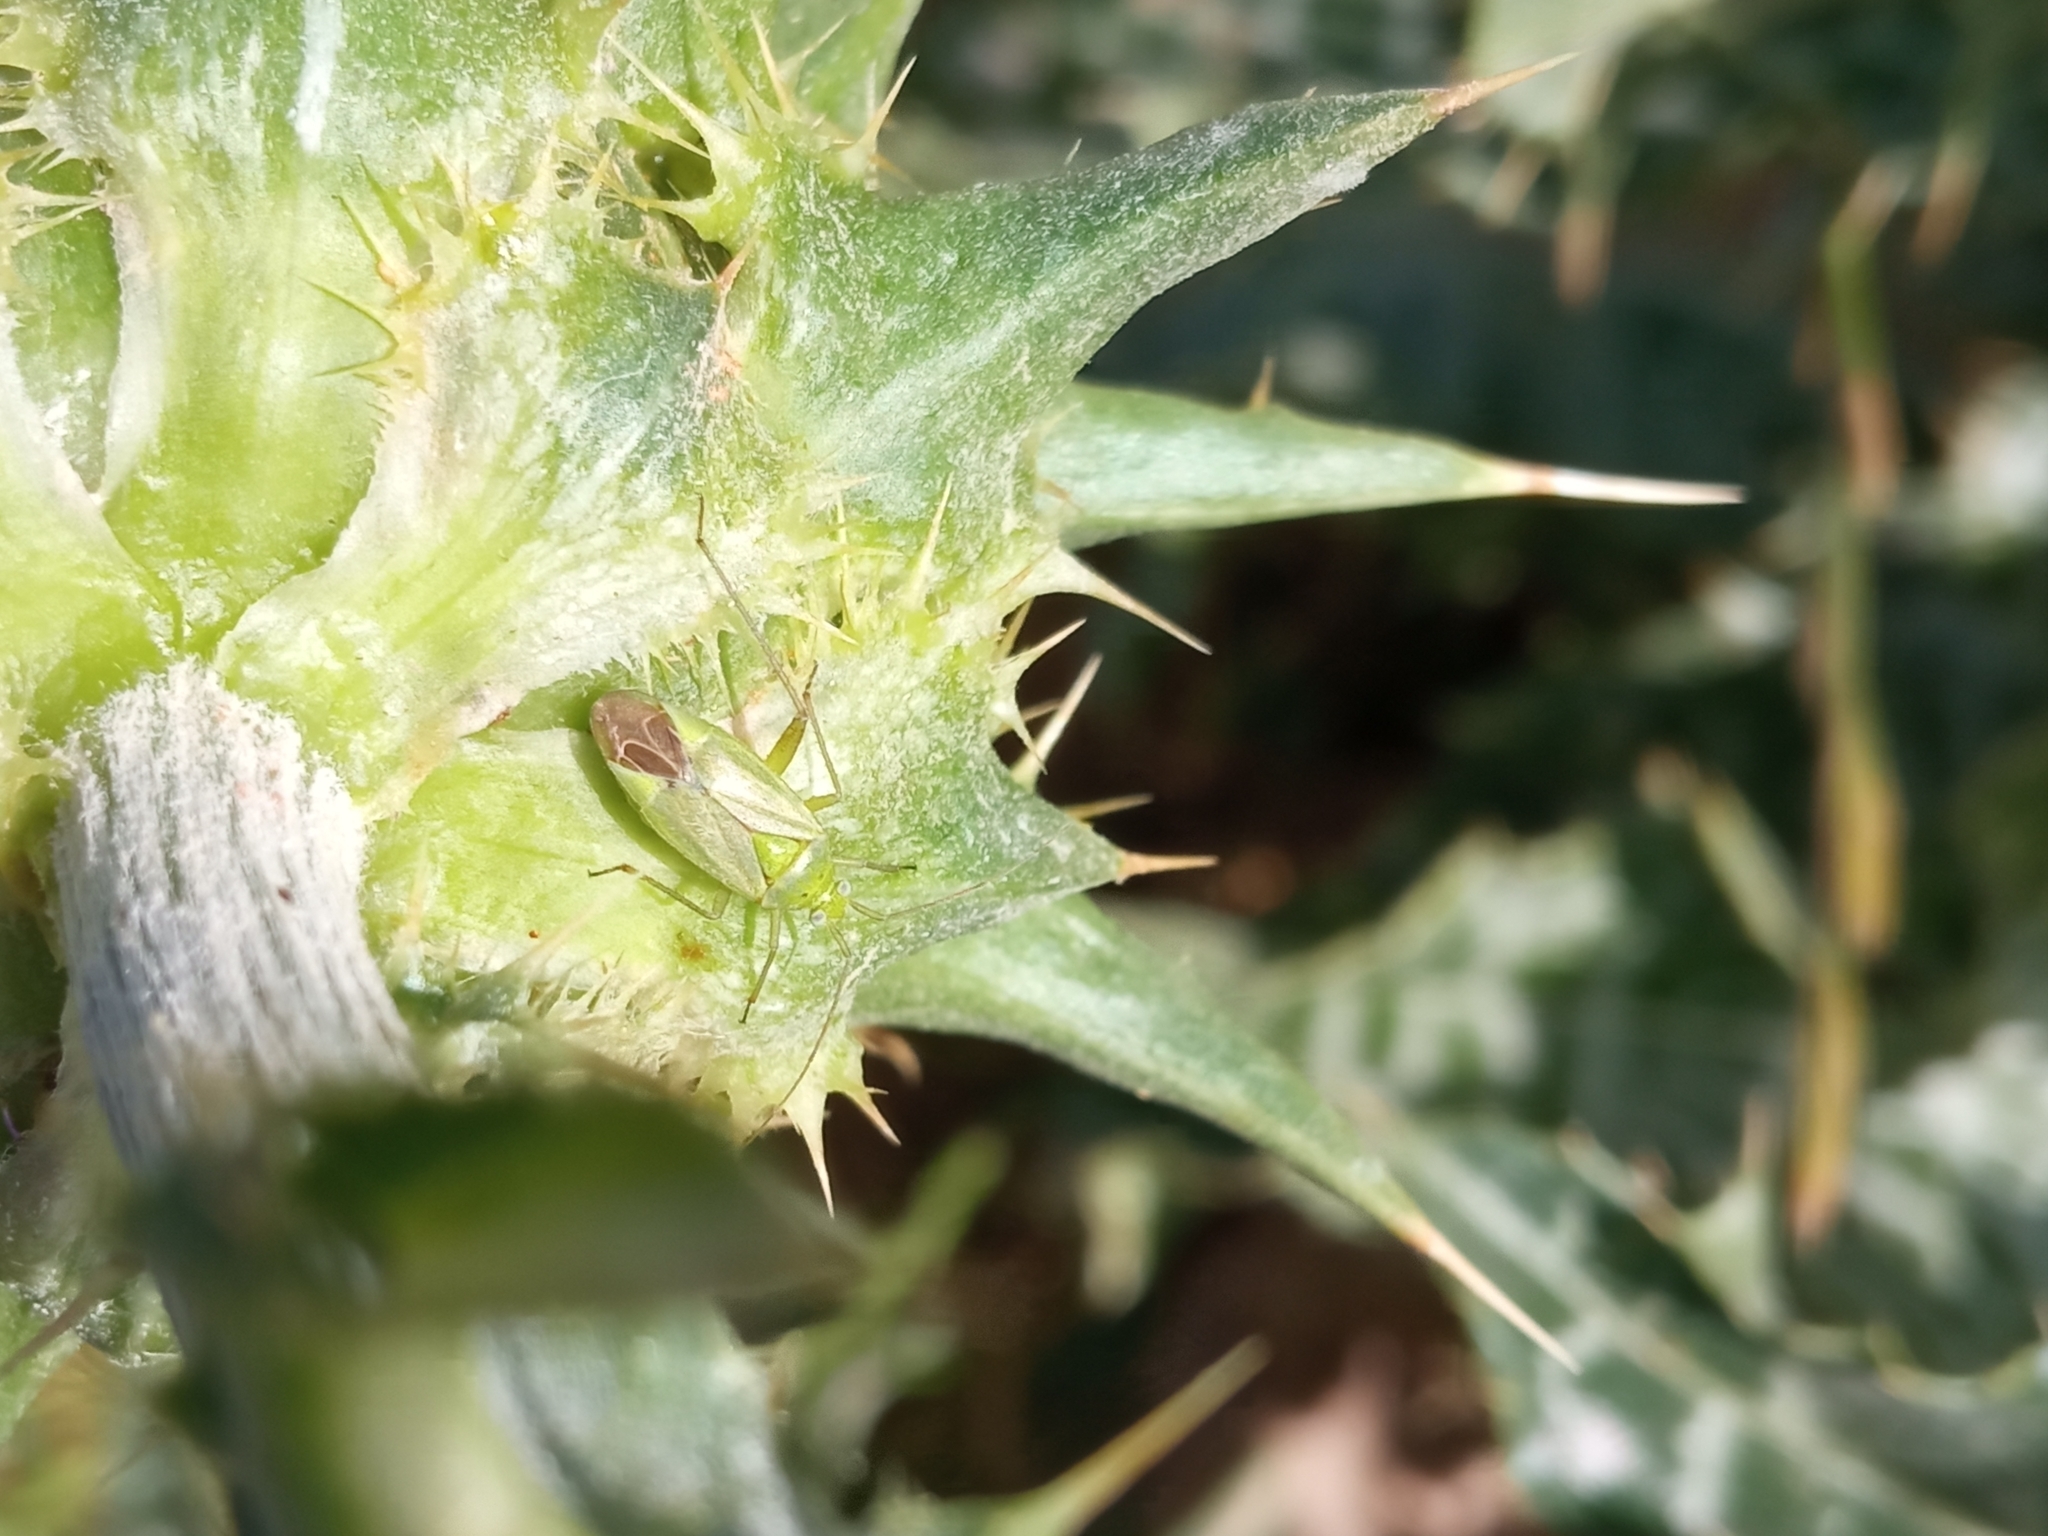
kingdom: Animalia
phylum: Arthropoda
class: Insecta
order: Hemiptera
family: Miridae
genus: Closterotomus
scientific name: Closterotomus norvegicus
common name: Plant bug
